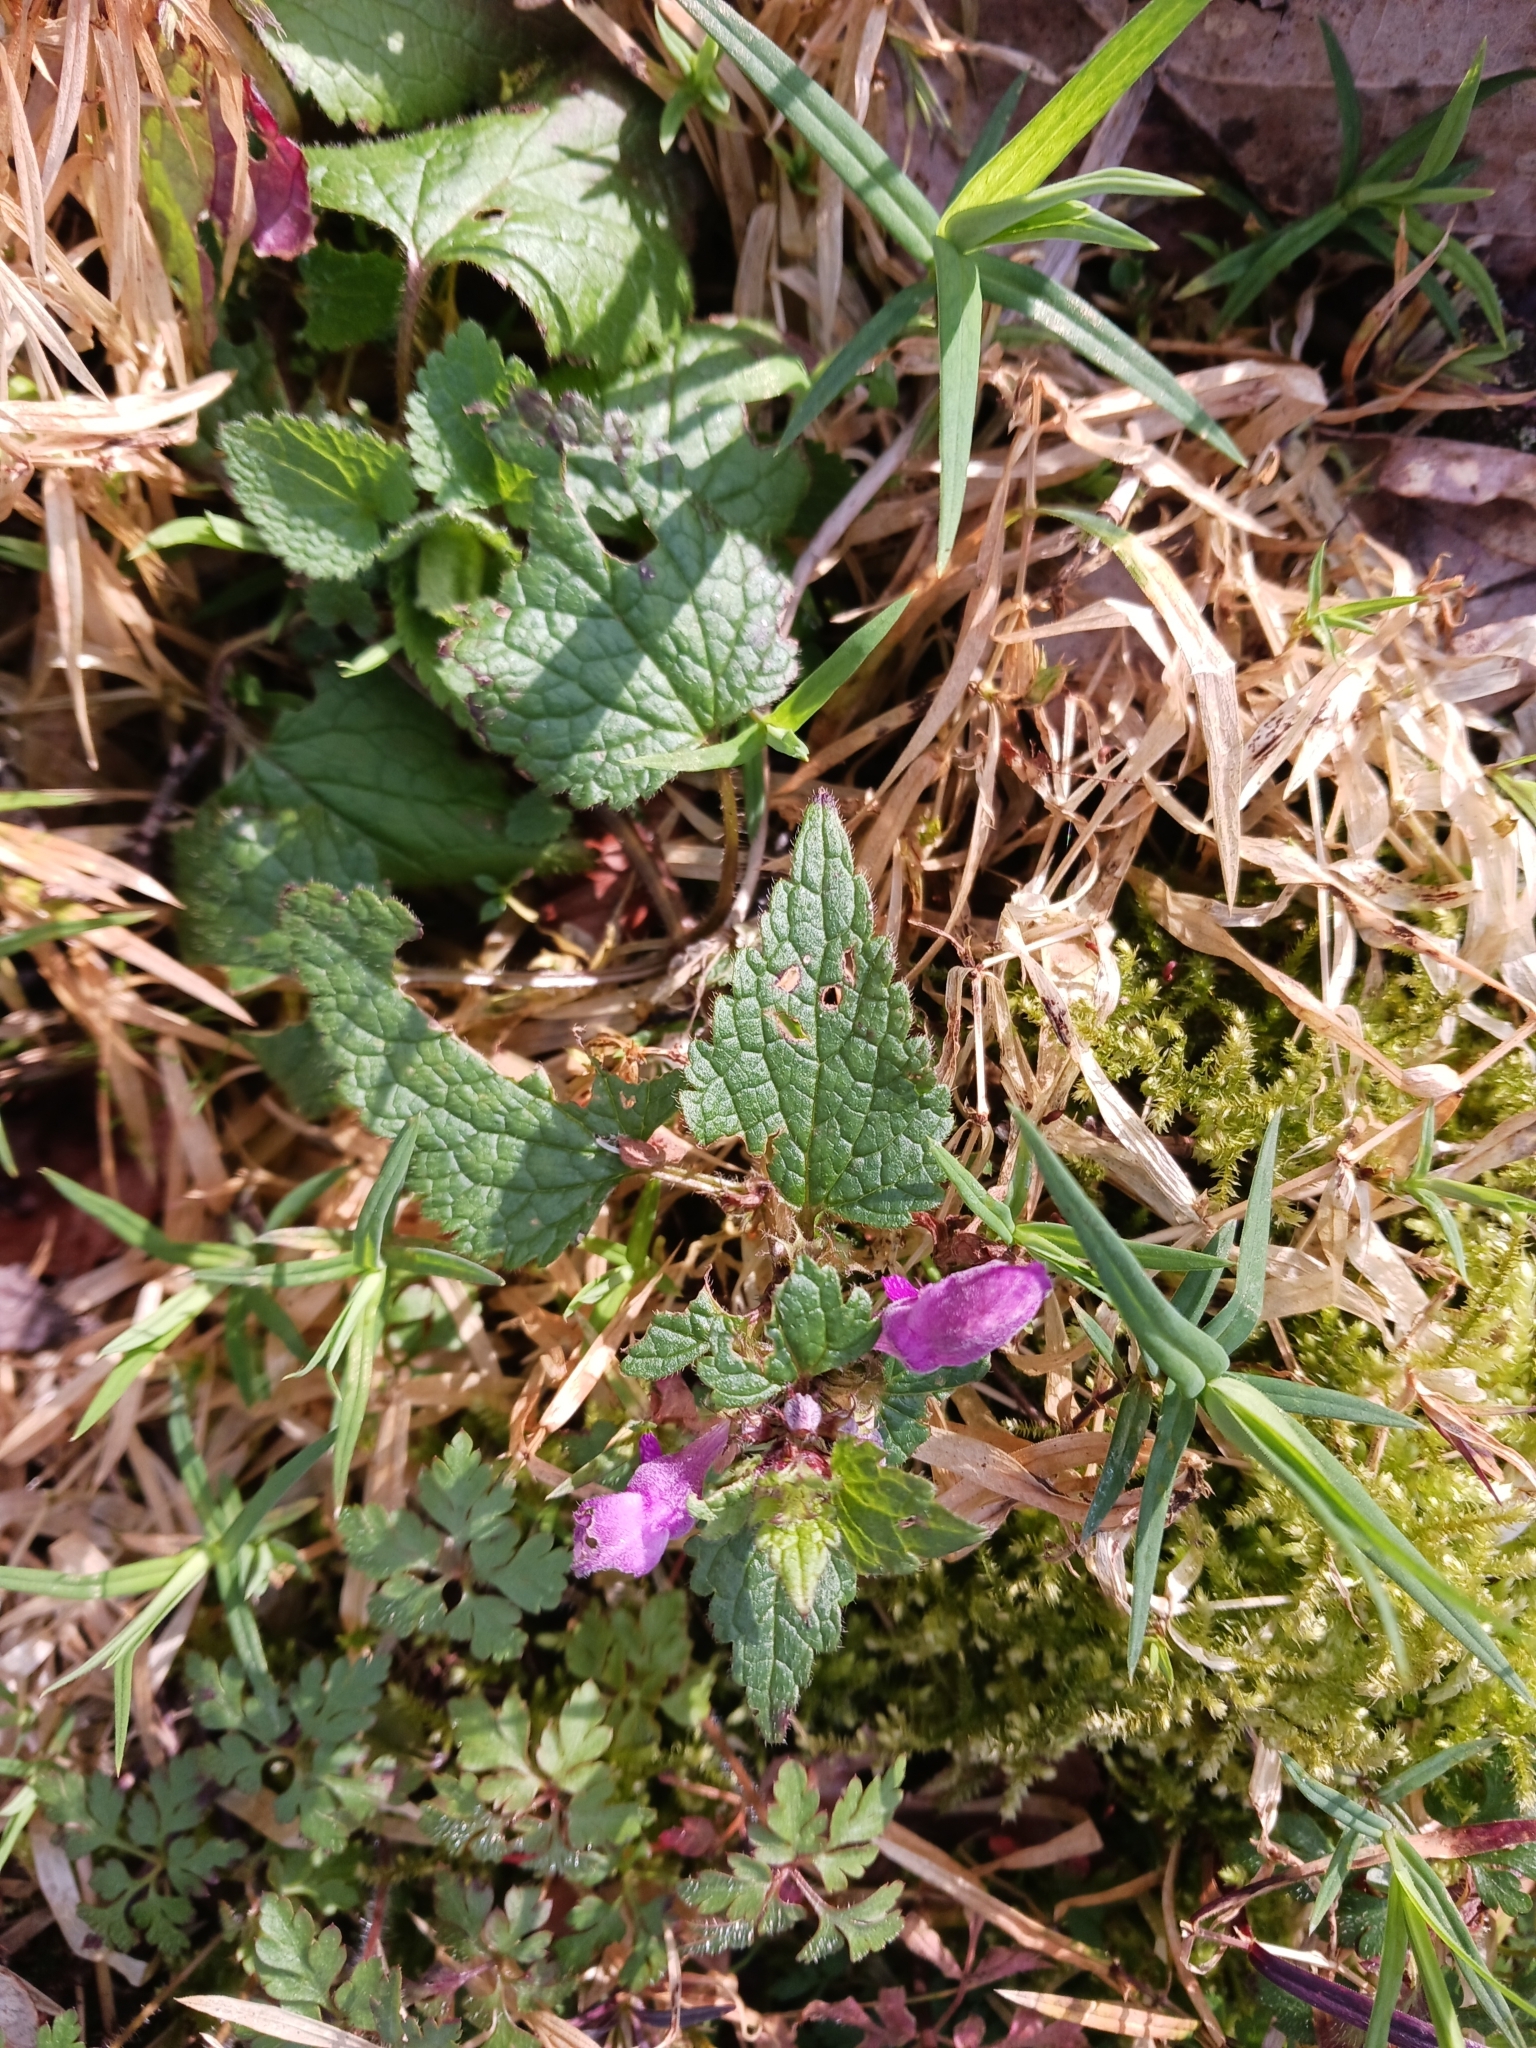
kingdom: Plantae
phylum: Tracheophyta
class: Magnoliopsida
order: Lamiales
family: Lamiaceae
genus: Lamium
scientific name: Lamium maculatum
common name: Spotted dead-nettle
